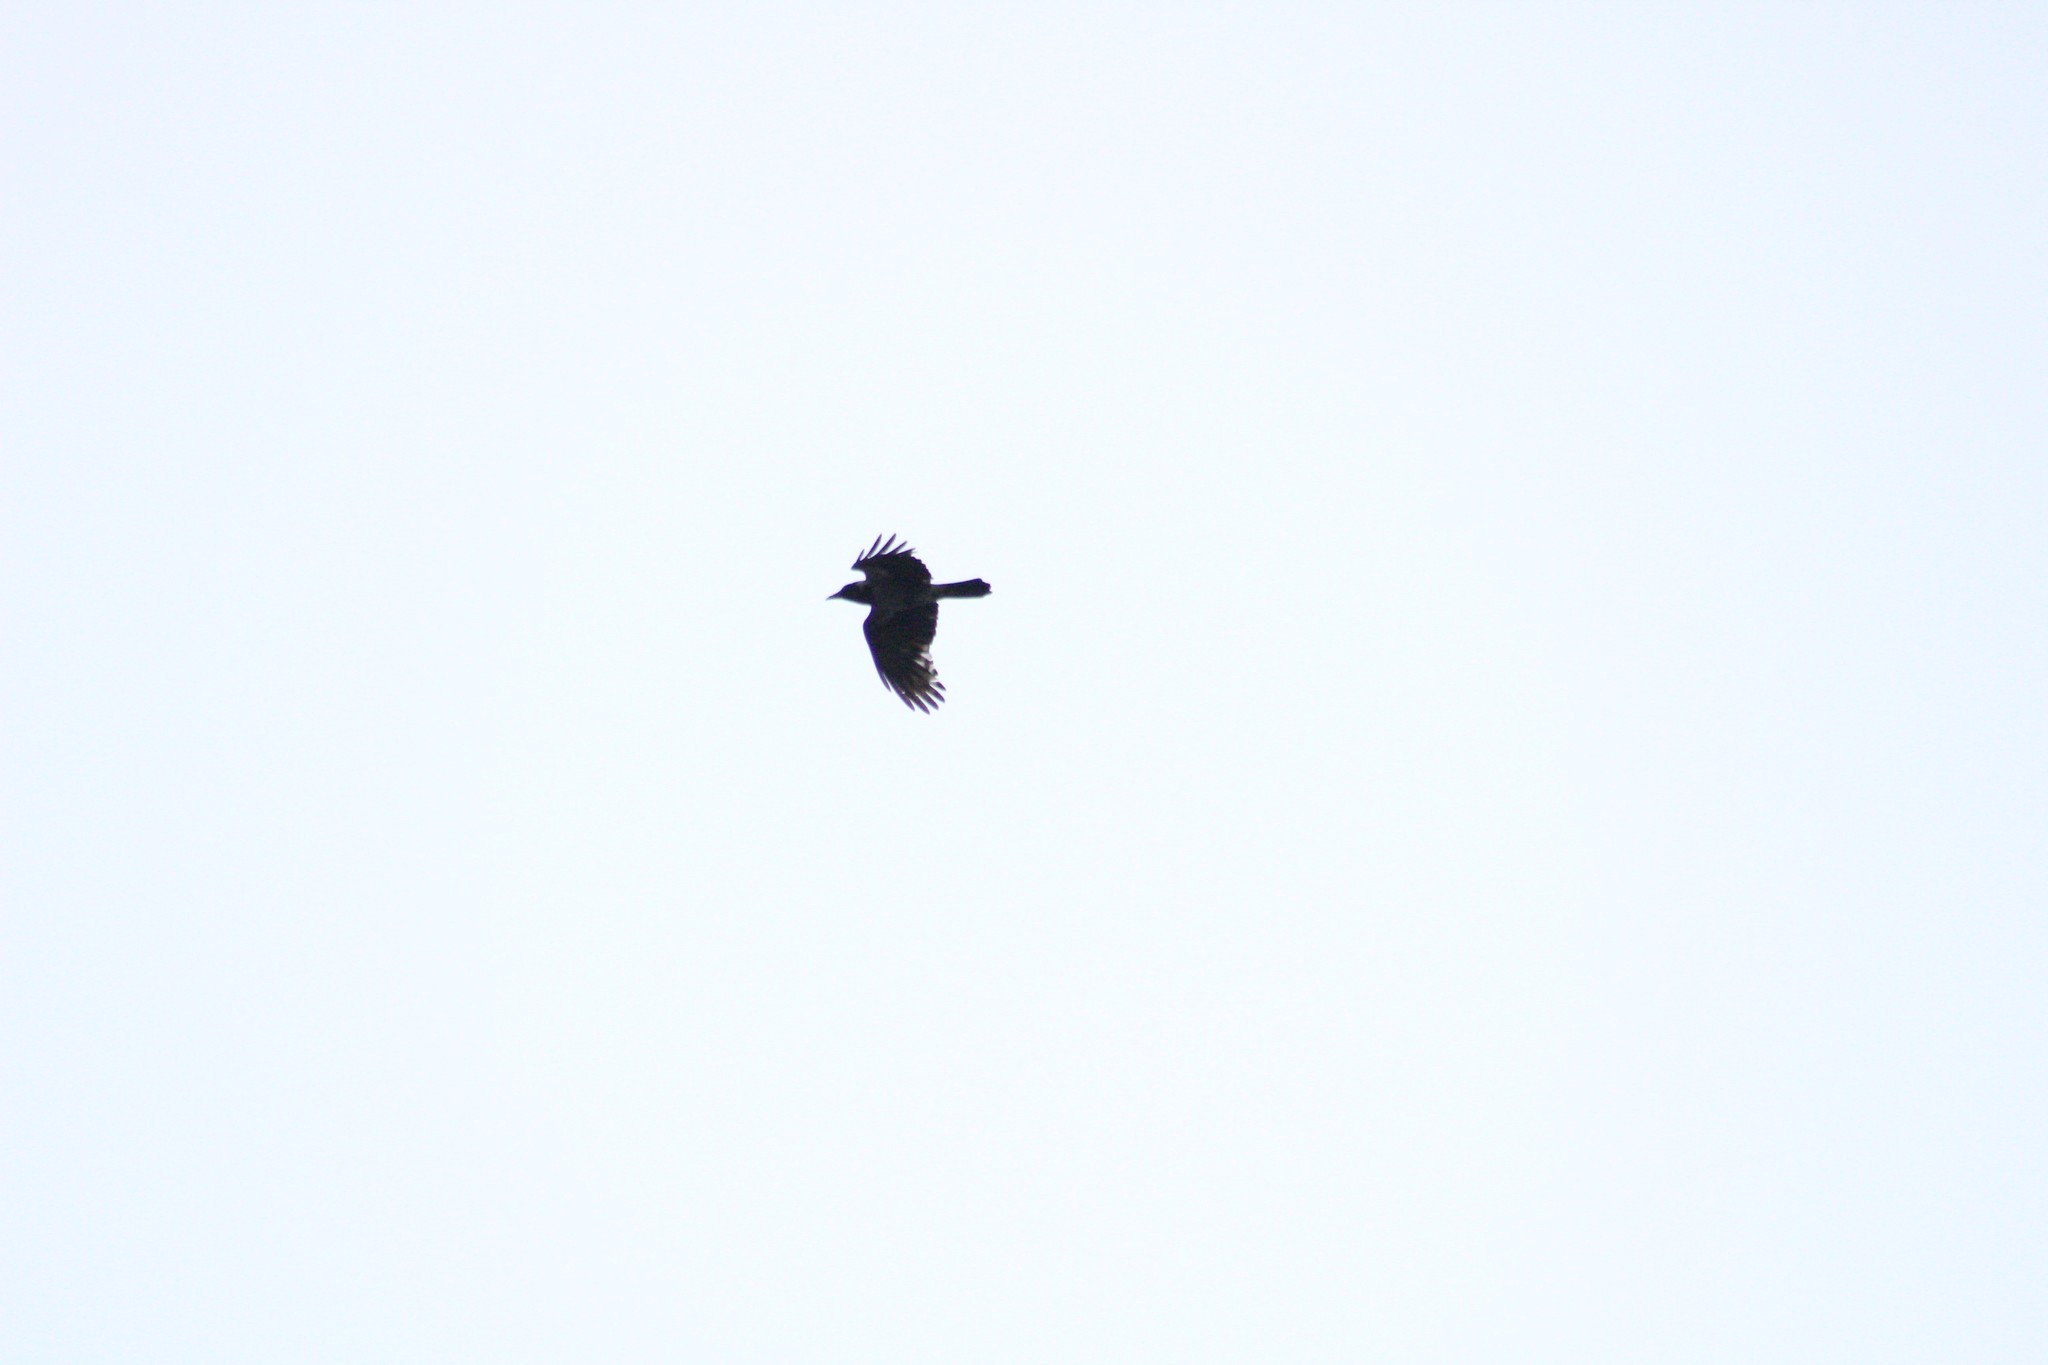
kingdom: Animalia
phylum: Chordata
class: Aves
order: Passeriformes
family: Corvidae
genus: Corvus
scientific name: Corvus cornix
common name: Hooded crow
